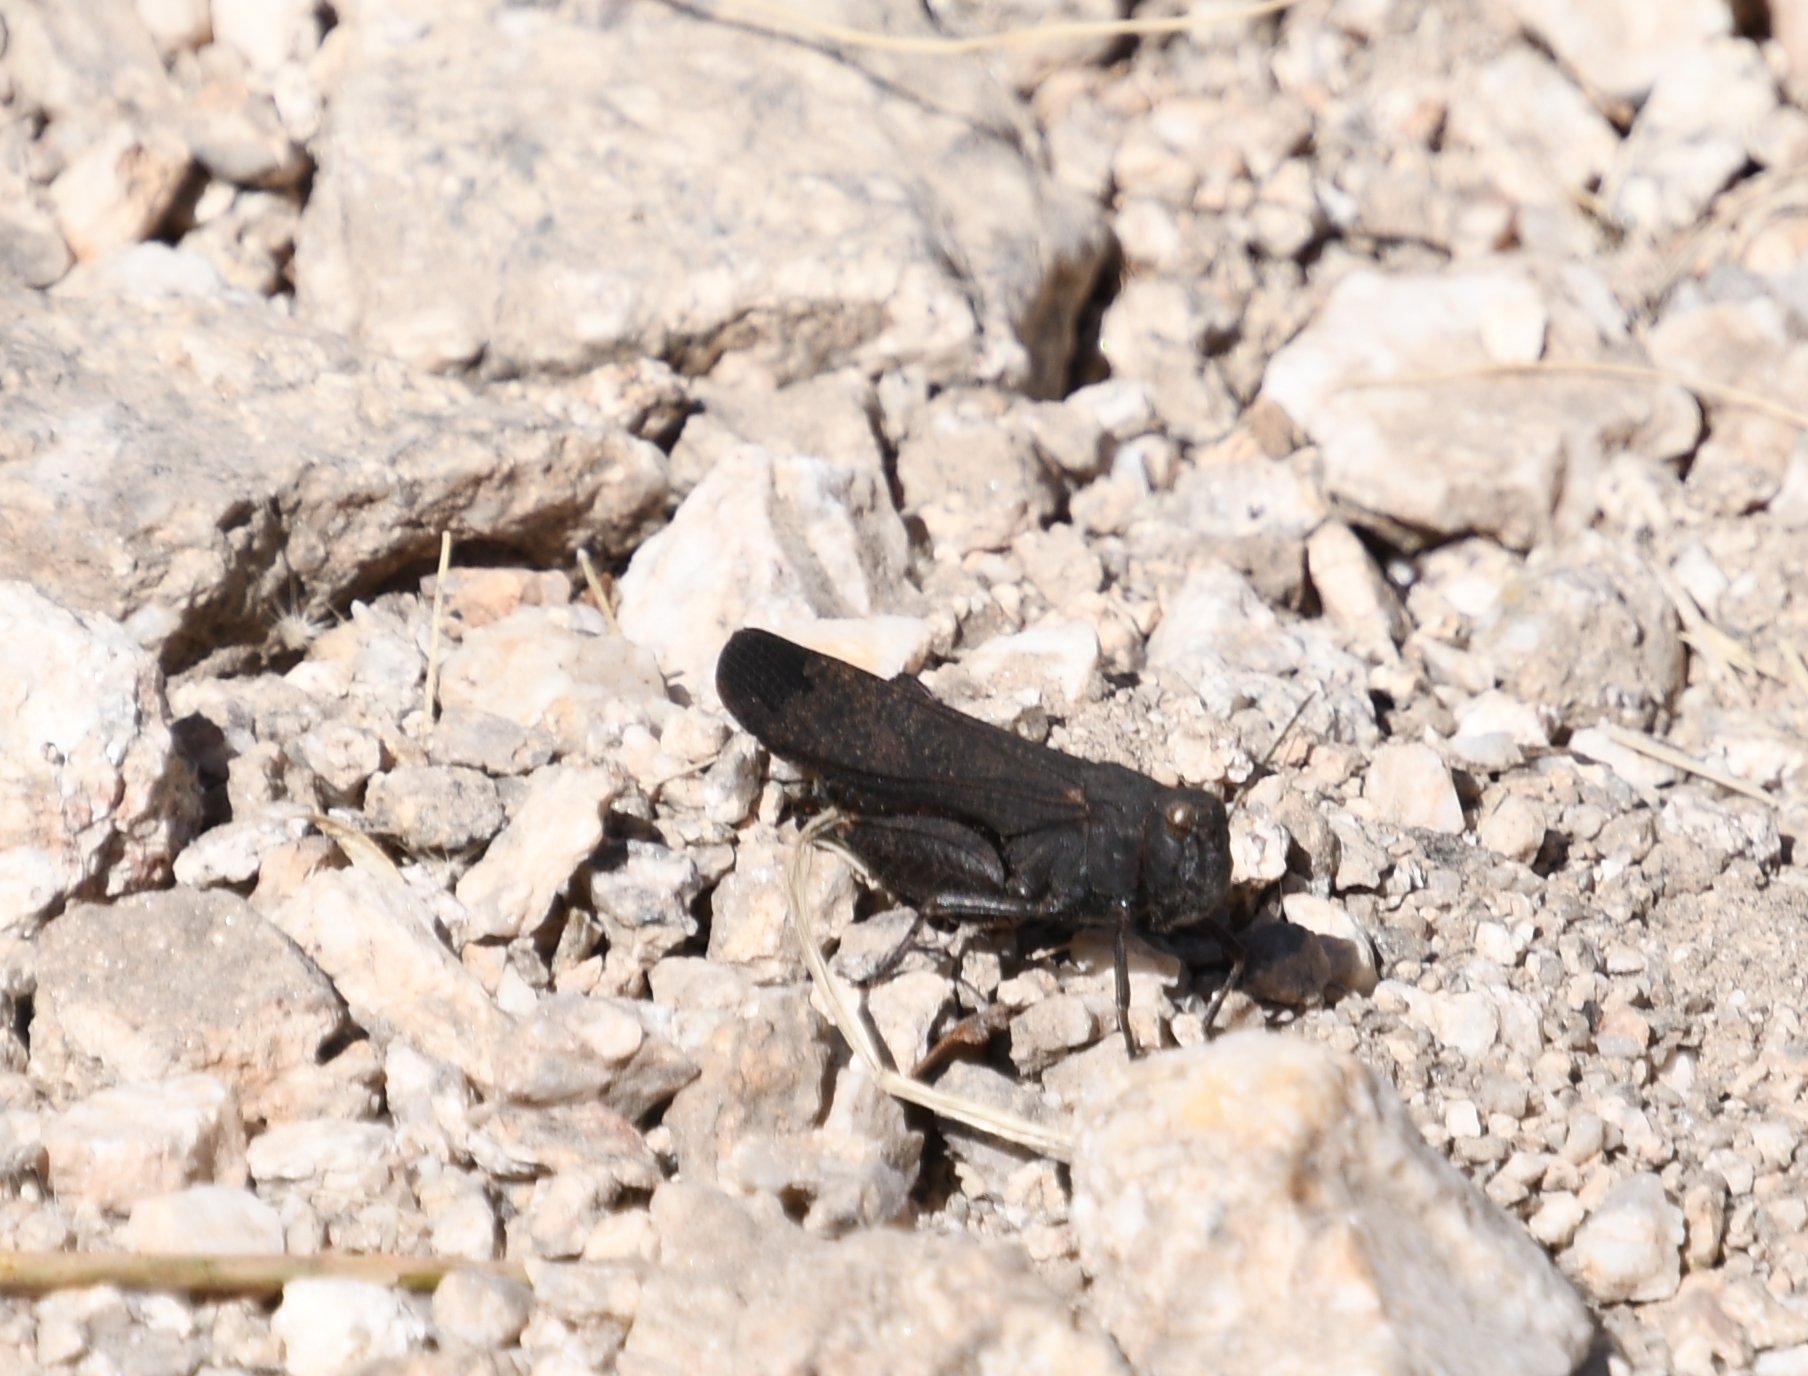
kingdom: Animalia
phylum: Arthropoda
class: Insecta
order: Orthoptera
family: Acrididae
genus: Arphia
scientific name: Arphia pseudo-nietana
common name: Red-winged grasshopper
